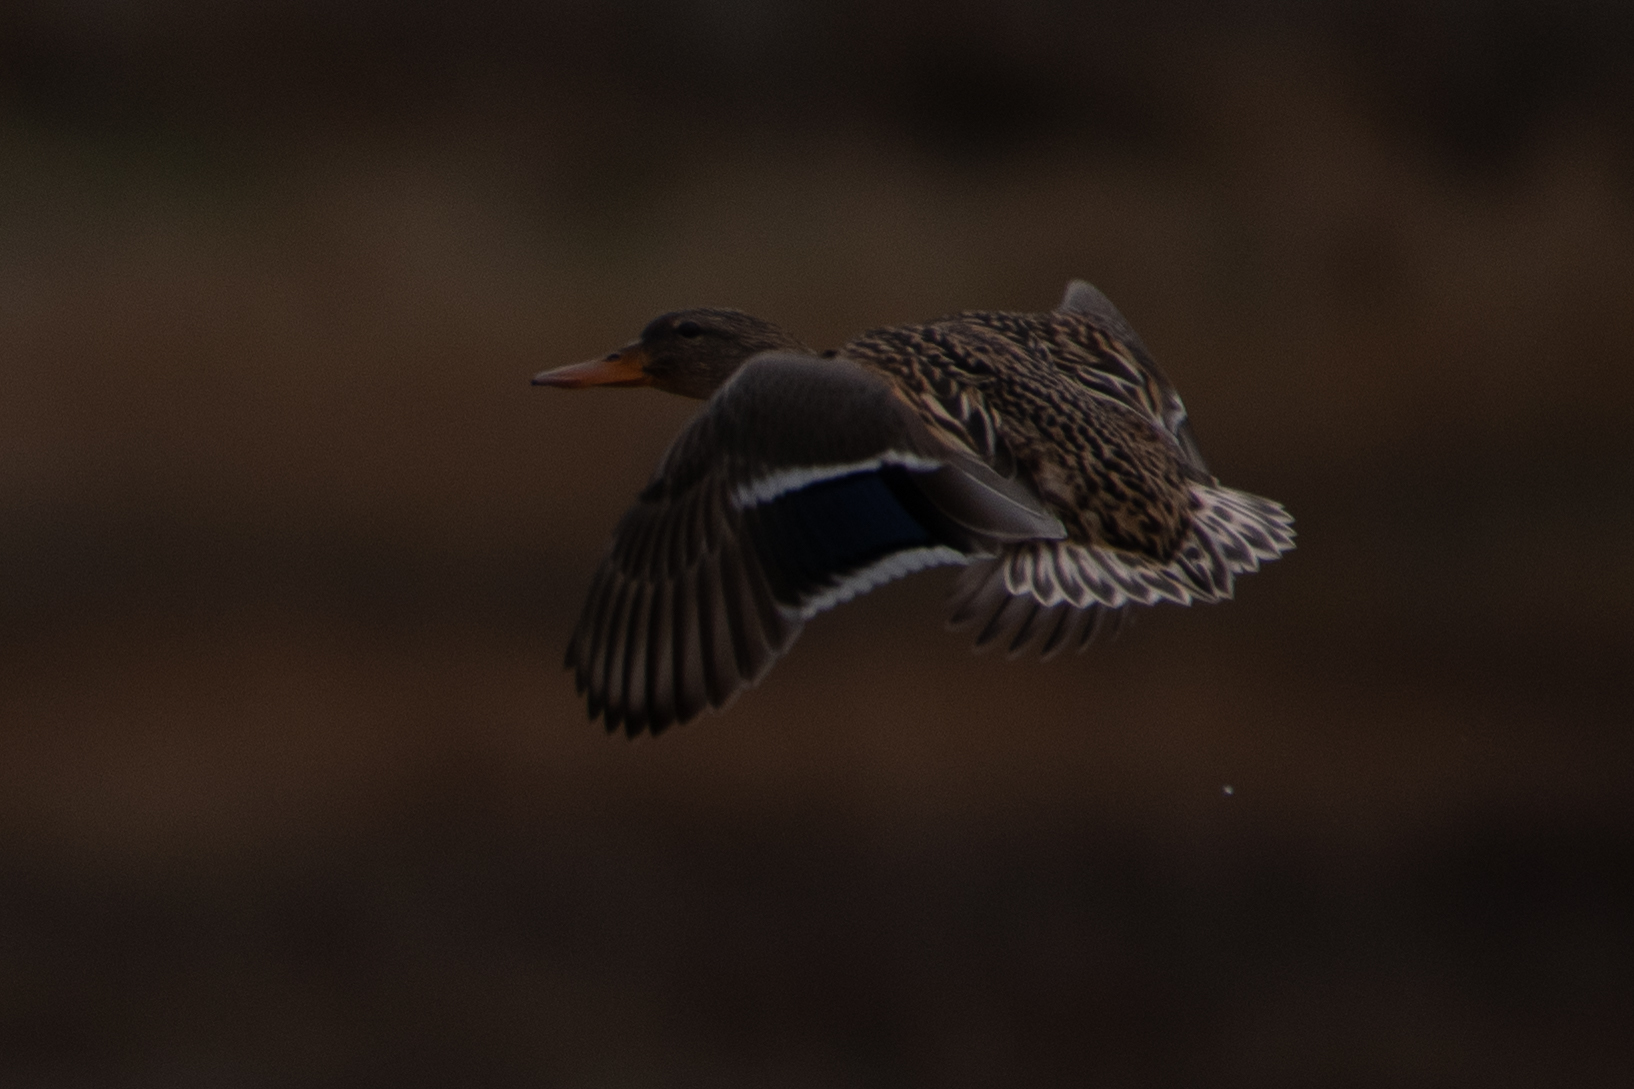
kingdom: Animalia
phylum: Chordata
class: Aves
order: Anseriformes
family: Anatidae
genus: Anas
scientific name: Anas platyrhynchos
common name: Mallard
